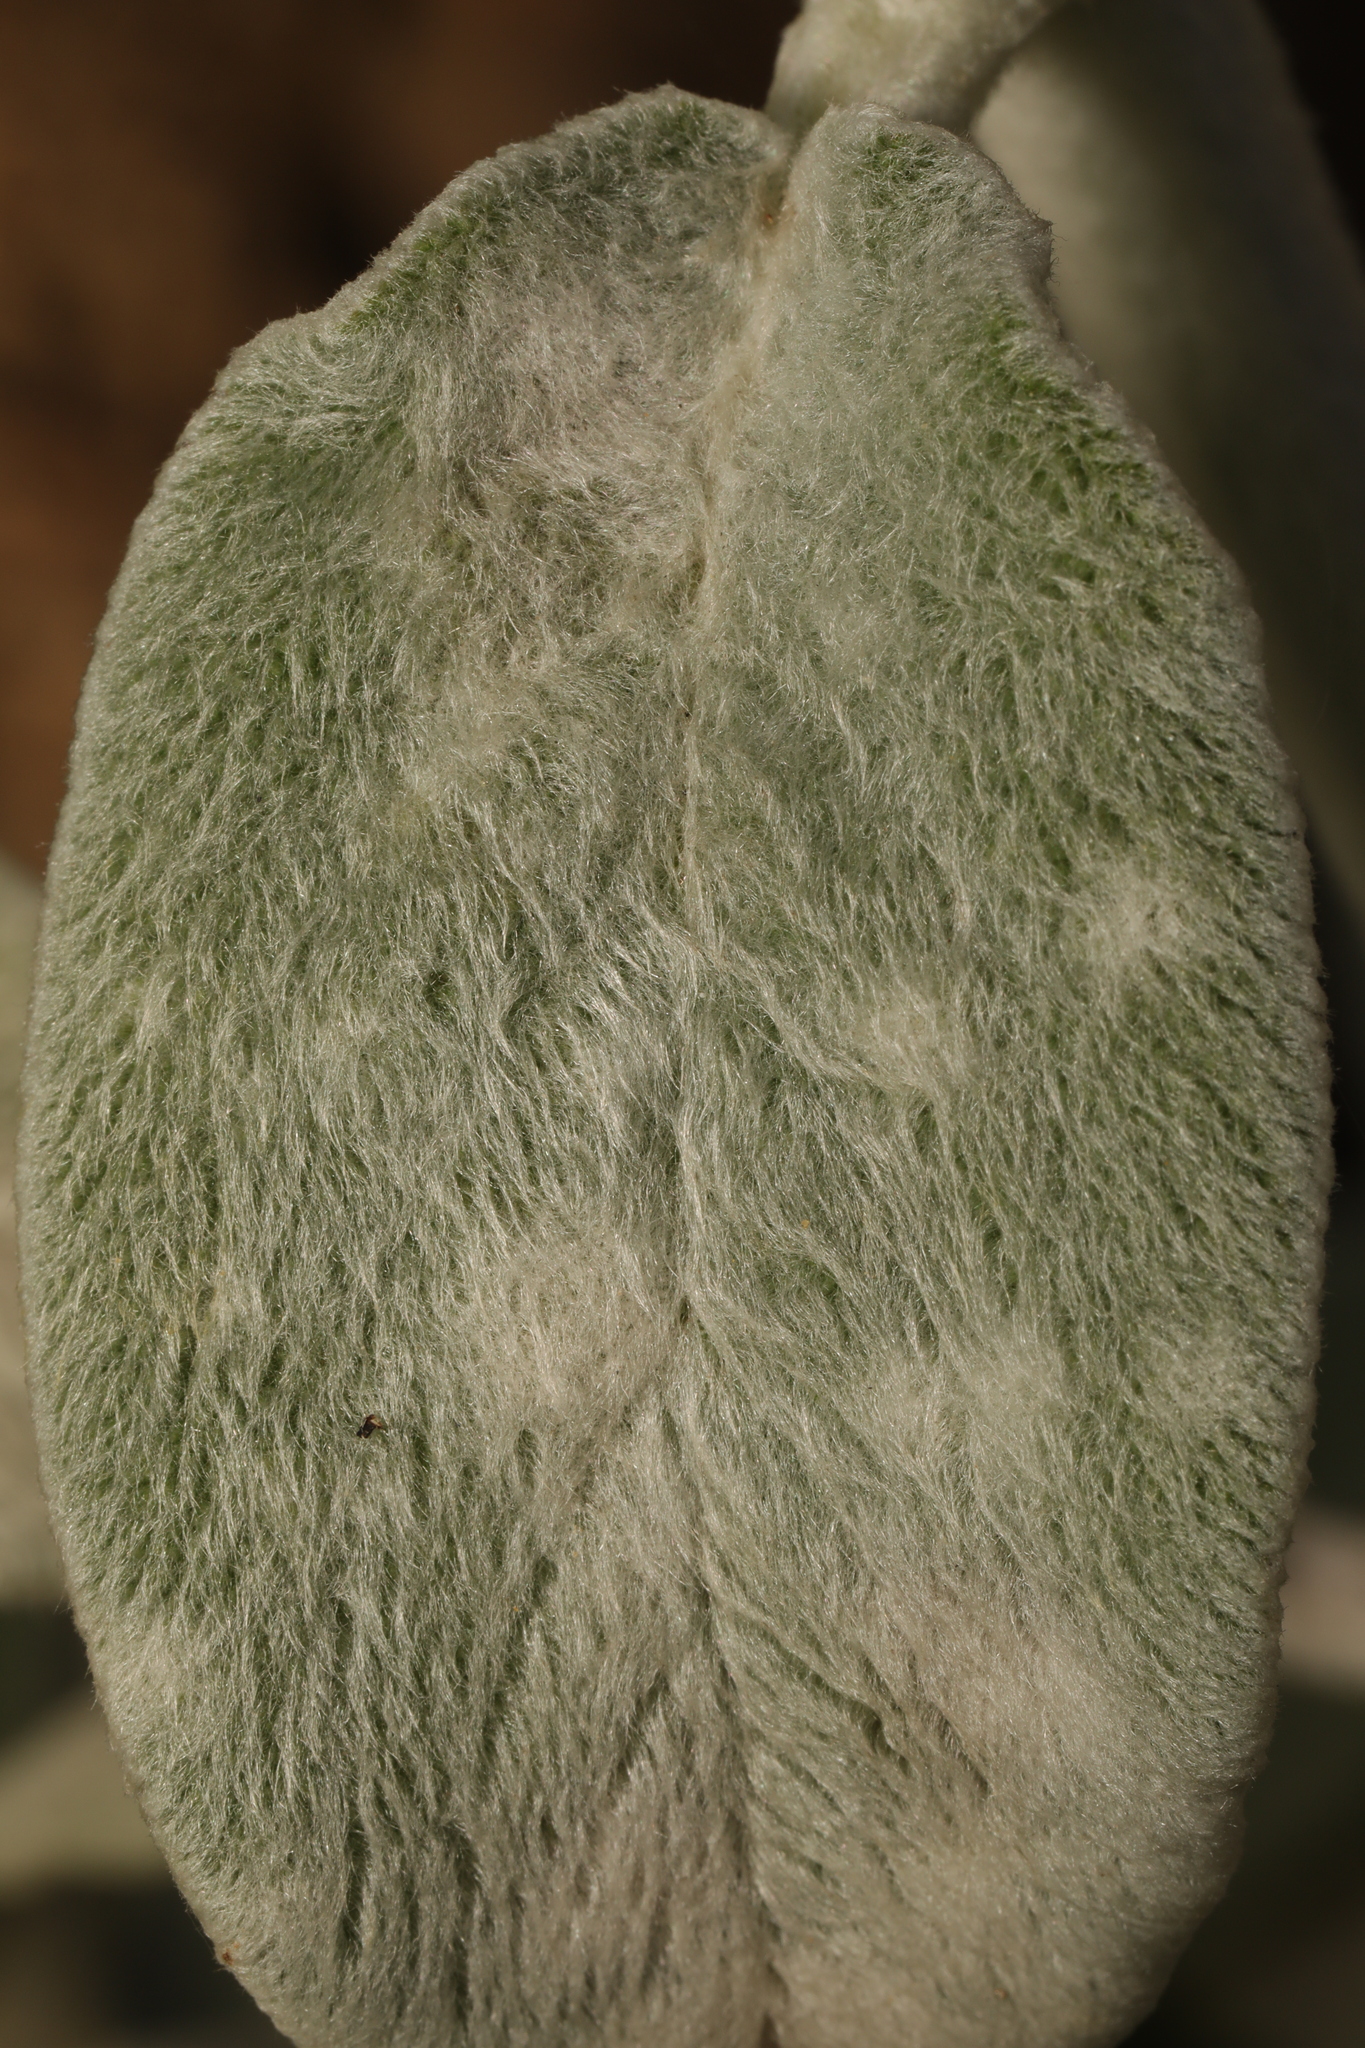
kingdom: Fungi
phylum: Ascomycota
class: Leotiomycetes
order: Helotiales
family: Erysiphaceae
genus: Neoerysiphe
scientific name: Neoerysiphe
